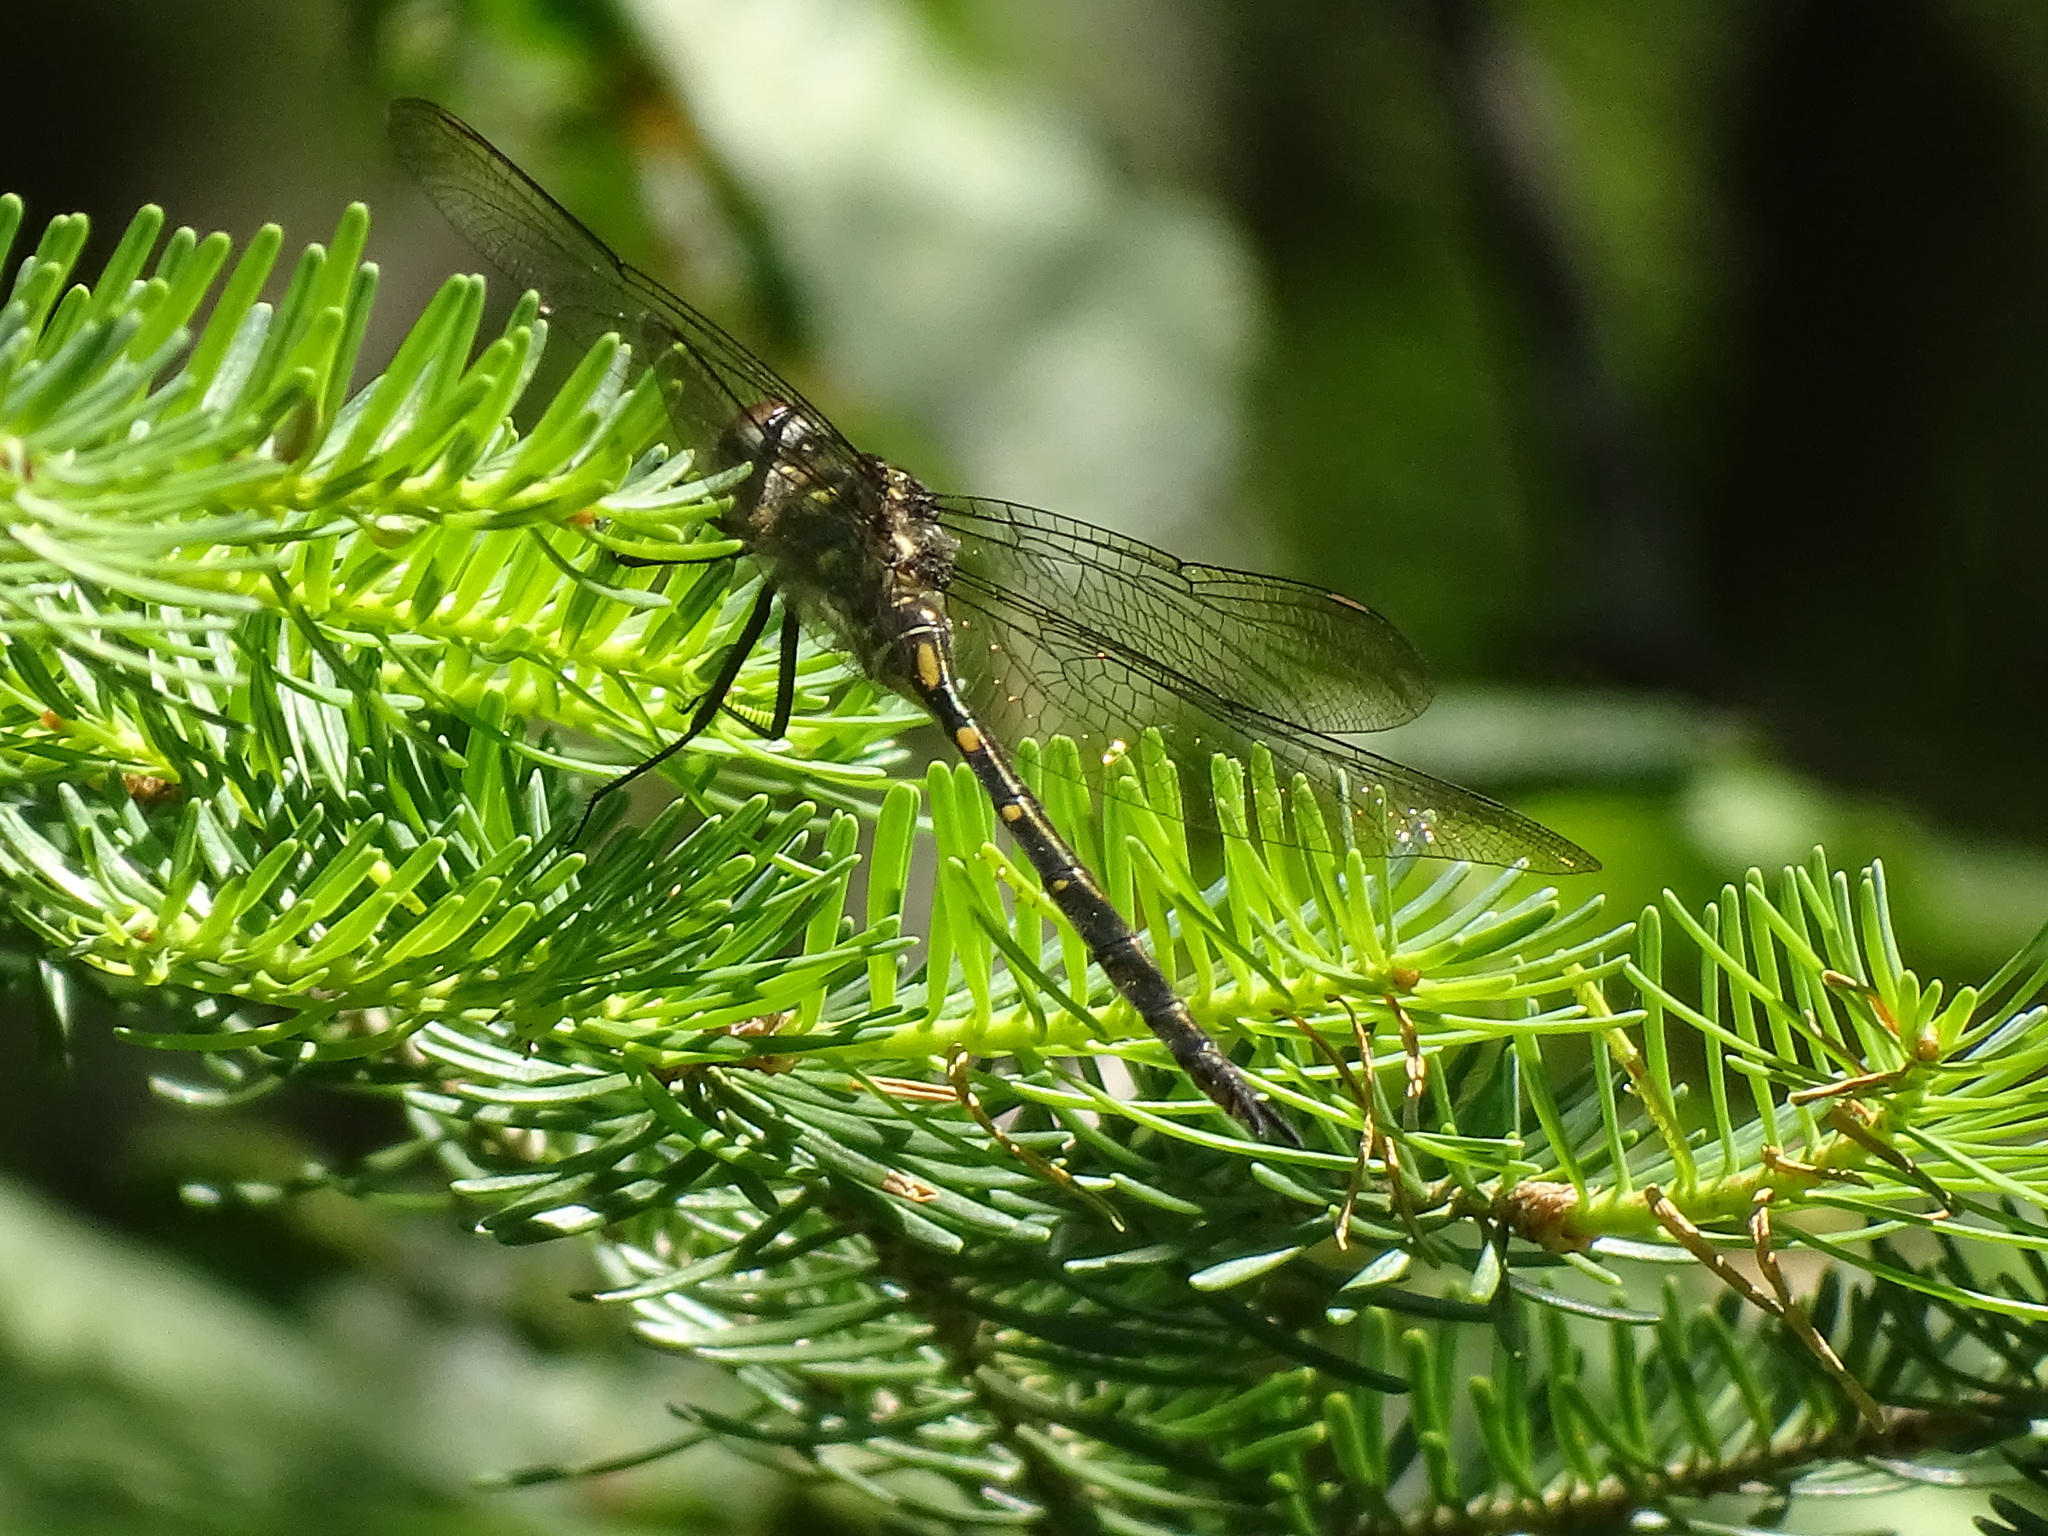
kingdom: Animalia
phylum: Arthropoda
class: Insecta
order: Odonata
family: Corduliidae
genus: Somatochlora
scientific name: Somatochlora forcipata
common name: Forcipate emerald
